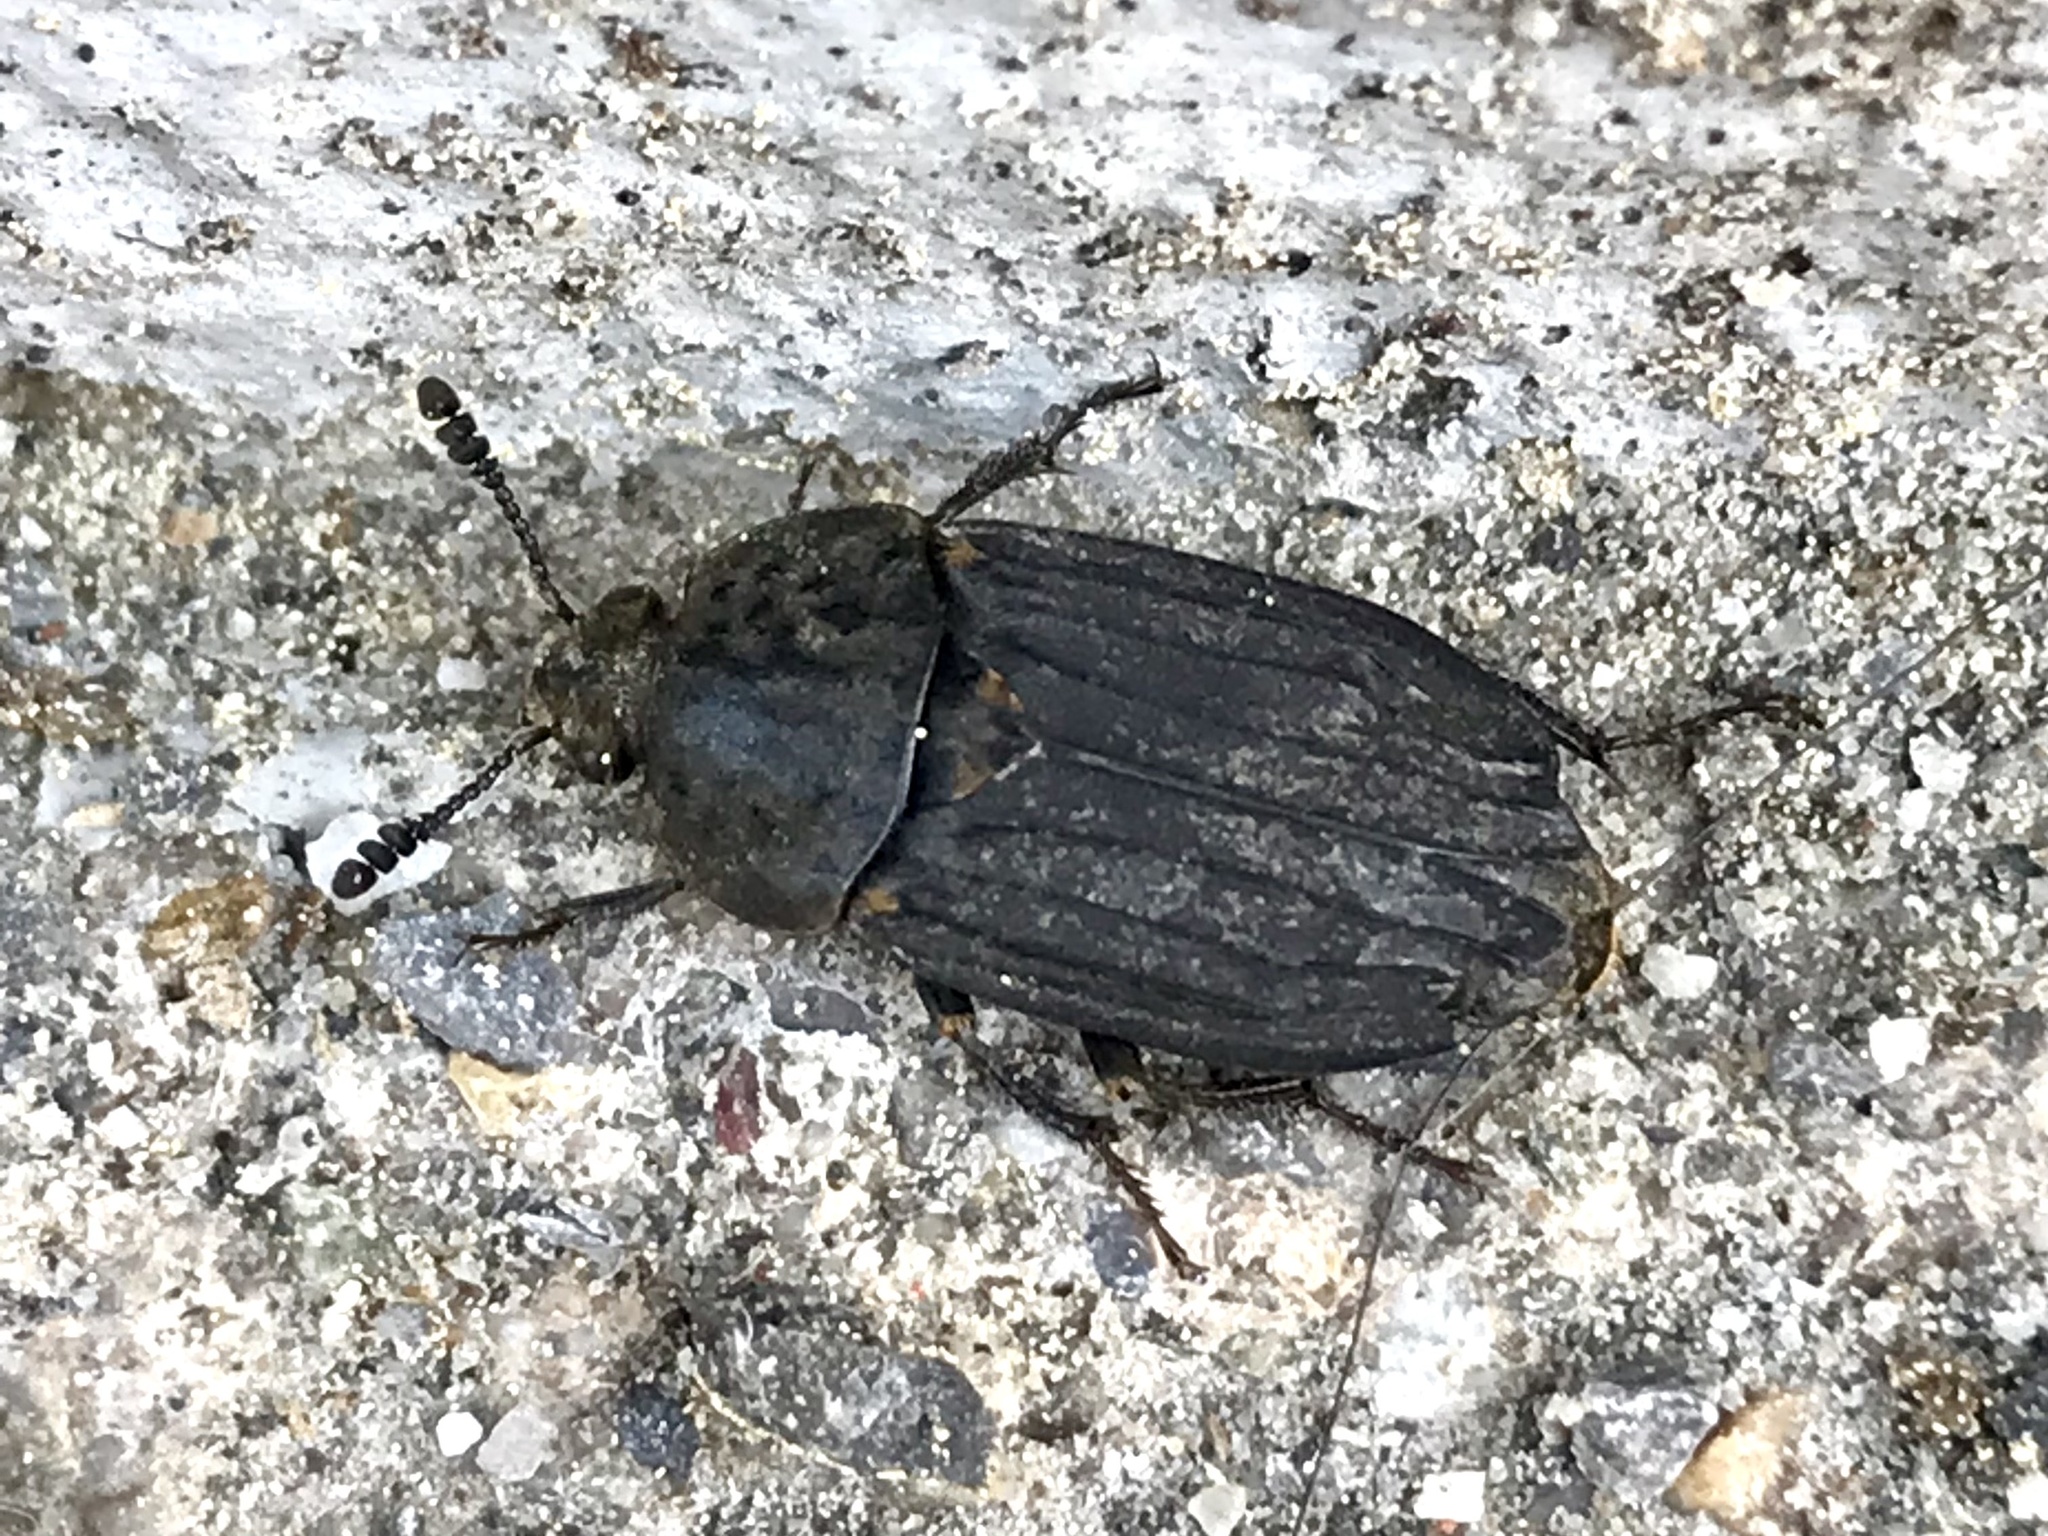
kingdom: Animalia
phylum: Arthropoda
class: Insecta
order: Coleoptera
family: Staphylinidae
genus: Thanatophilus
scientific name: Thanatophilus sinuatus
